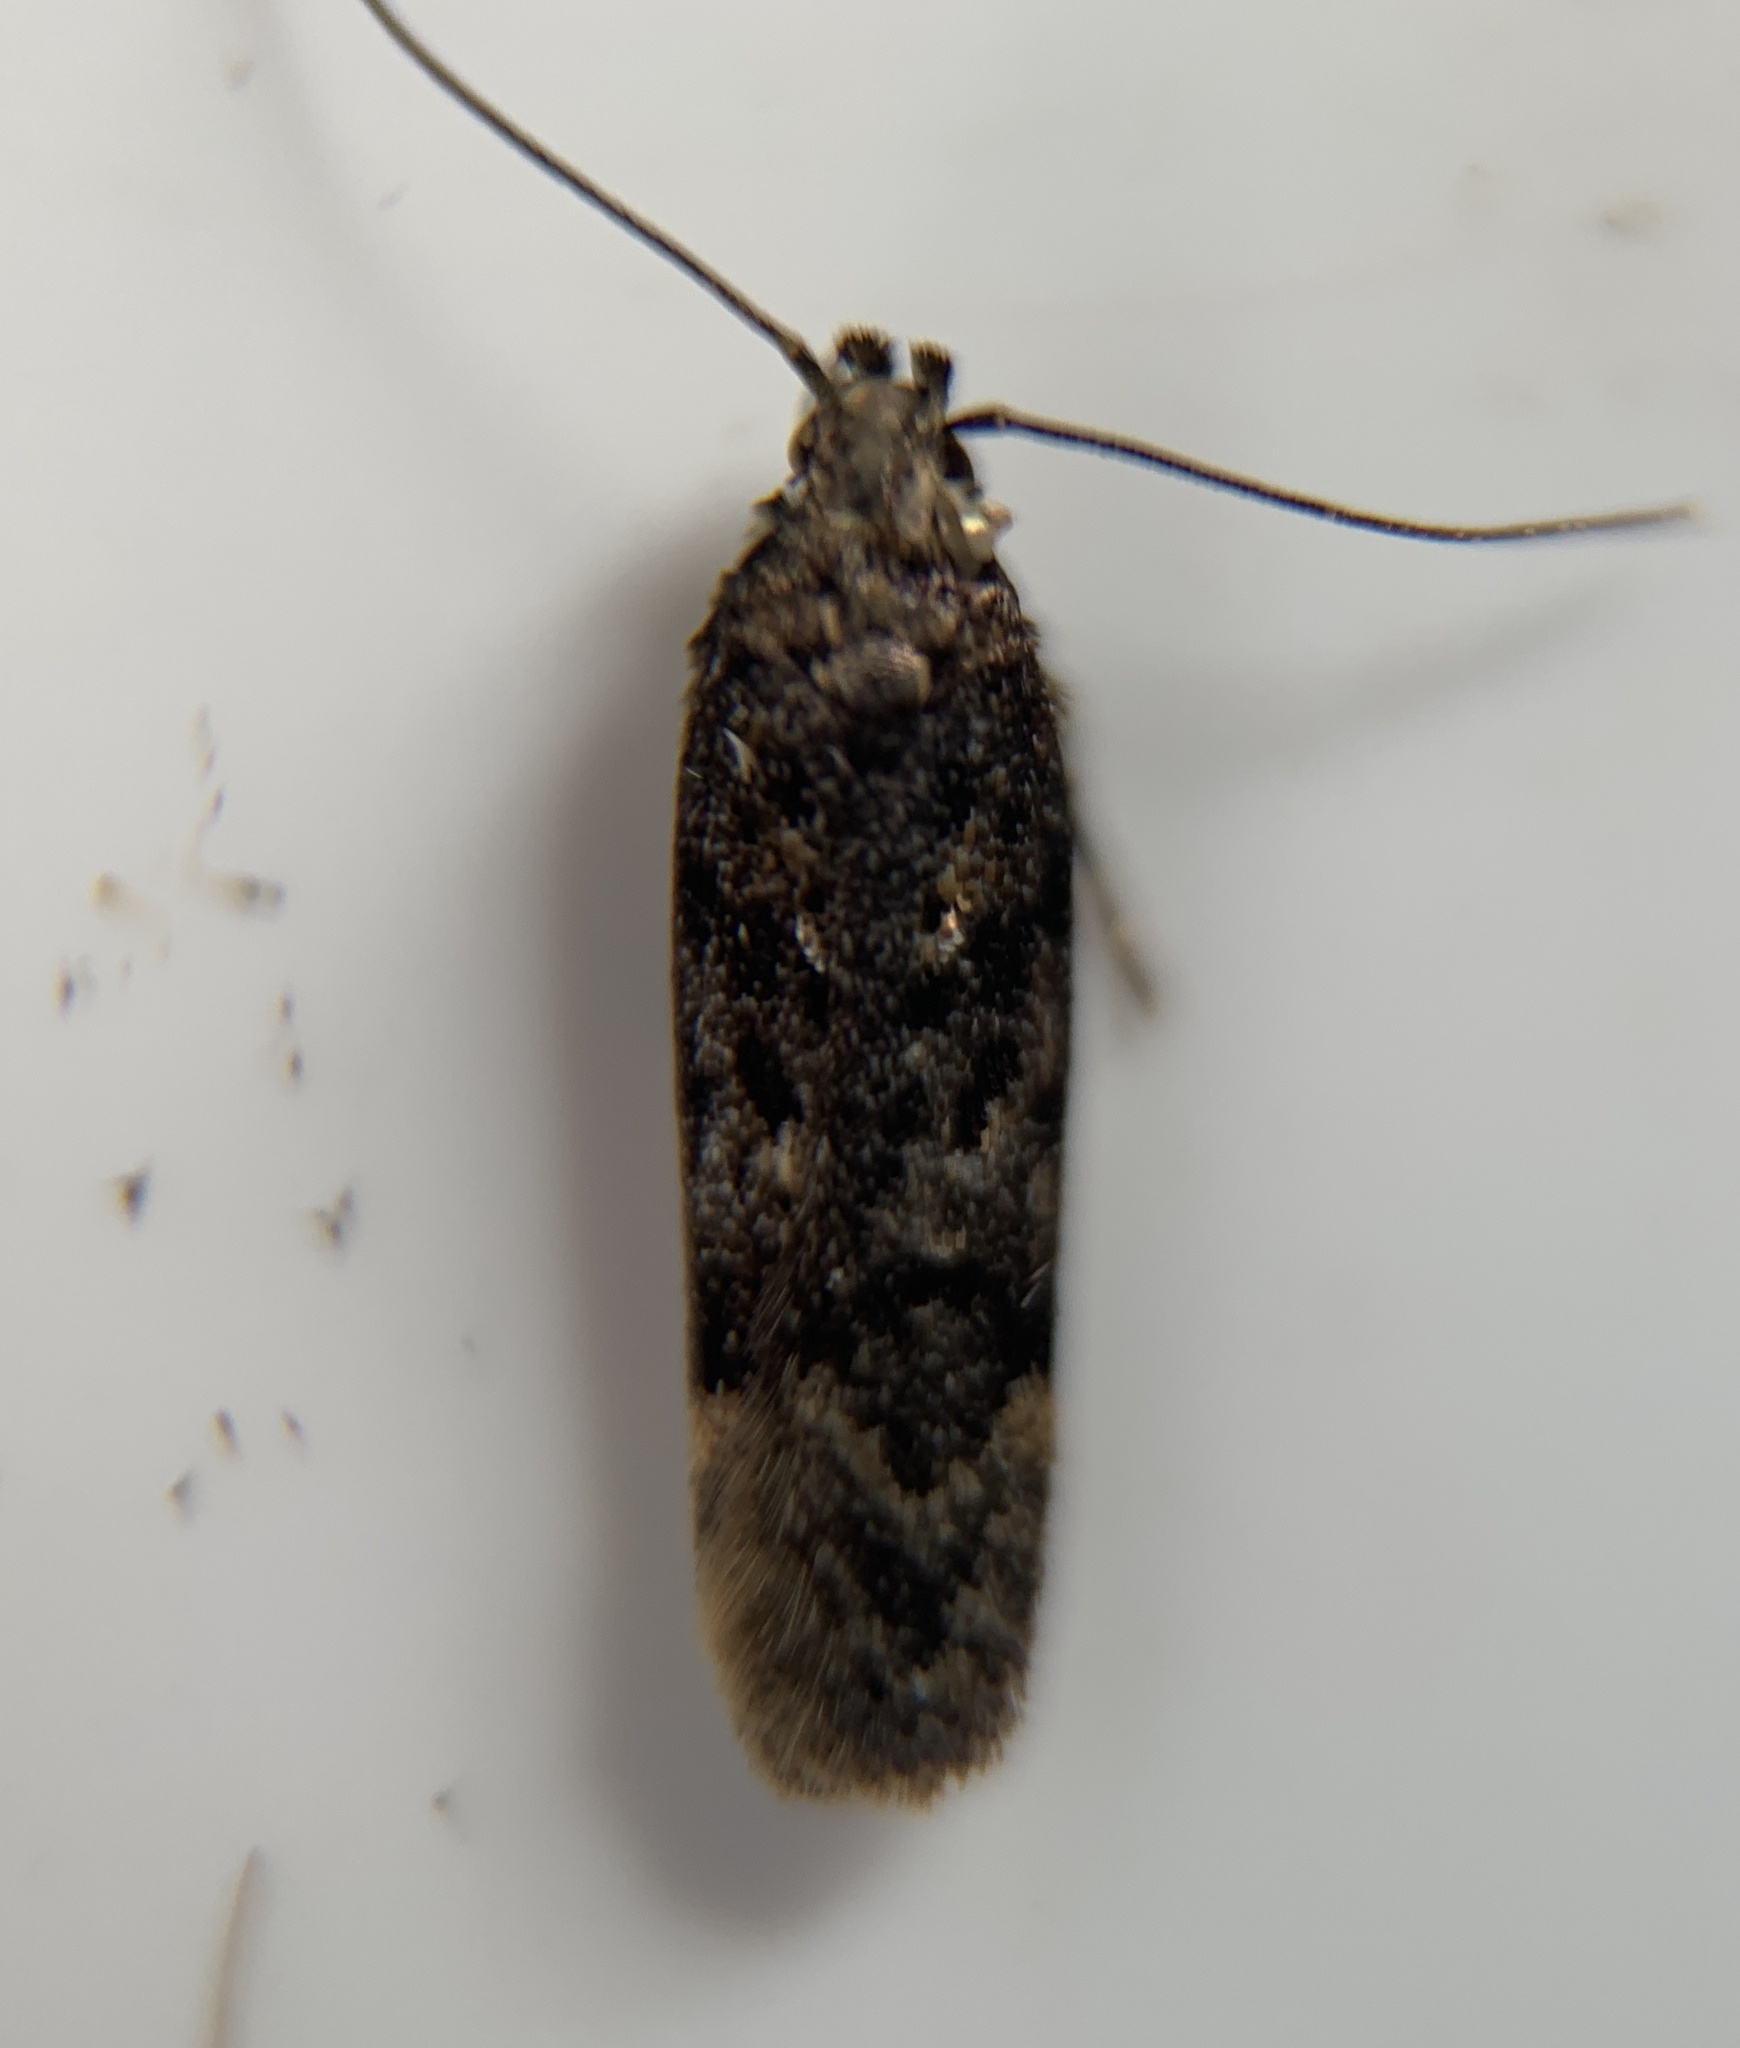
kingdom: Animalia
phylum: Arthropoda
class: Insecta
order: Lepidoptera
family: Gelechiidae
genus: Chionodes
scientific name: Chionodes thoraceochrella
